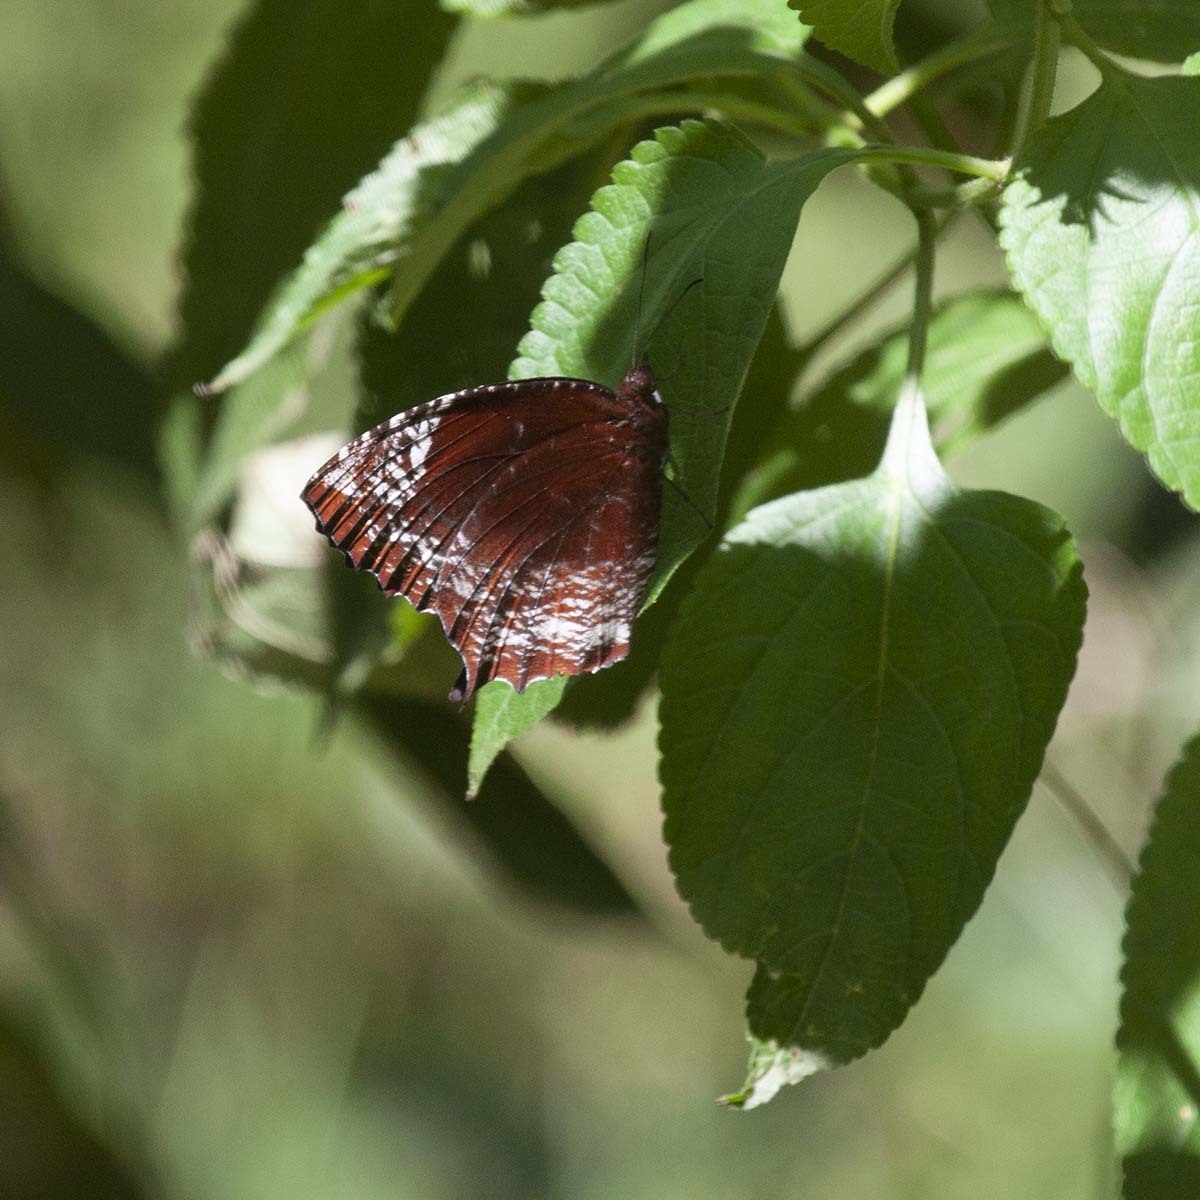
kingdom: Animalia
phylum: Arthropoda
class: Insecta
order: Lepidoptera
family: Nymphalidae
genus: Elymnias
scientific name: Elymnias caudata
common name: Tailed palmfly
